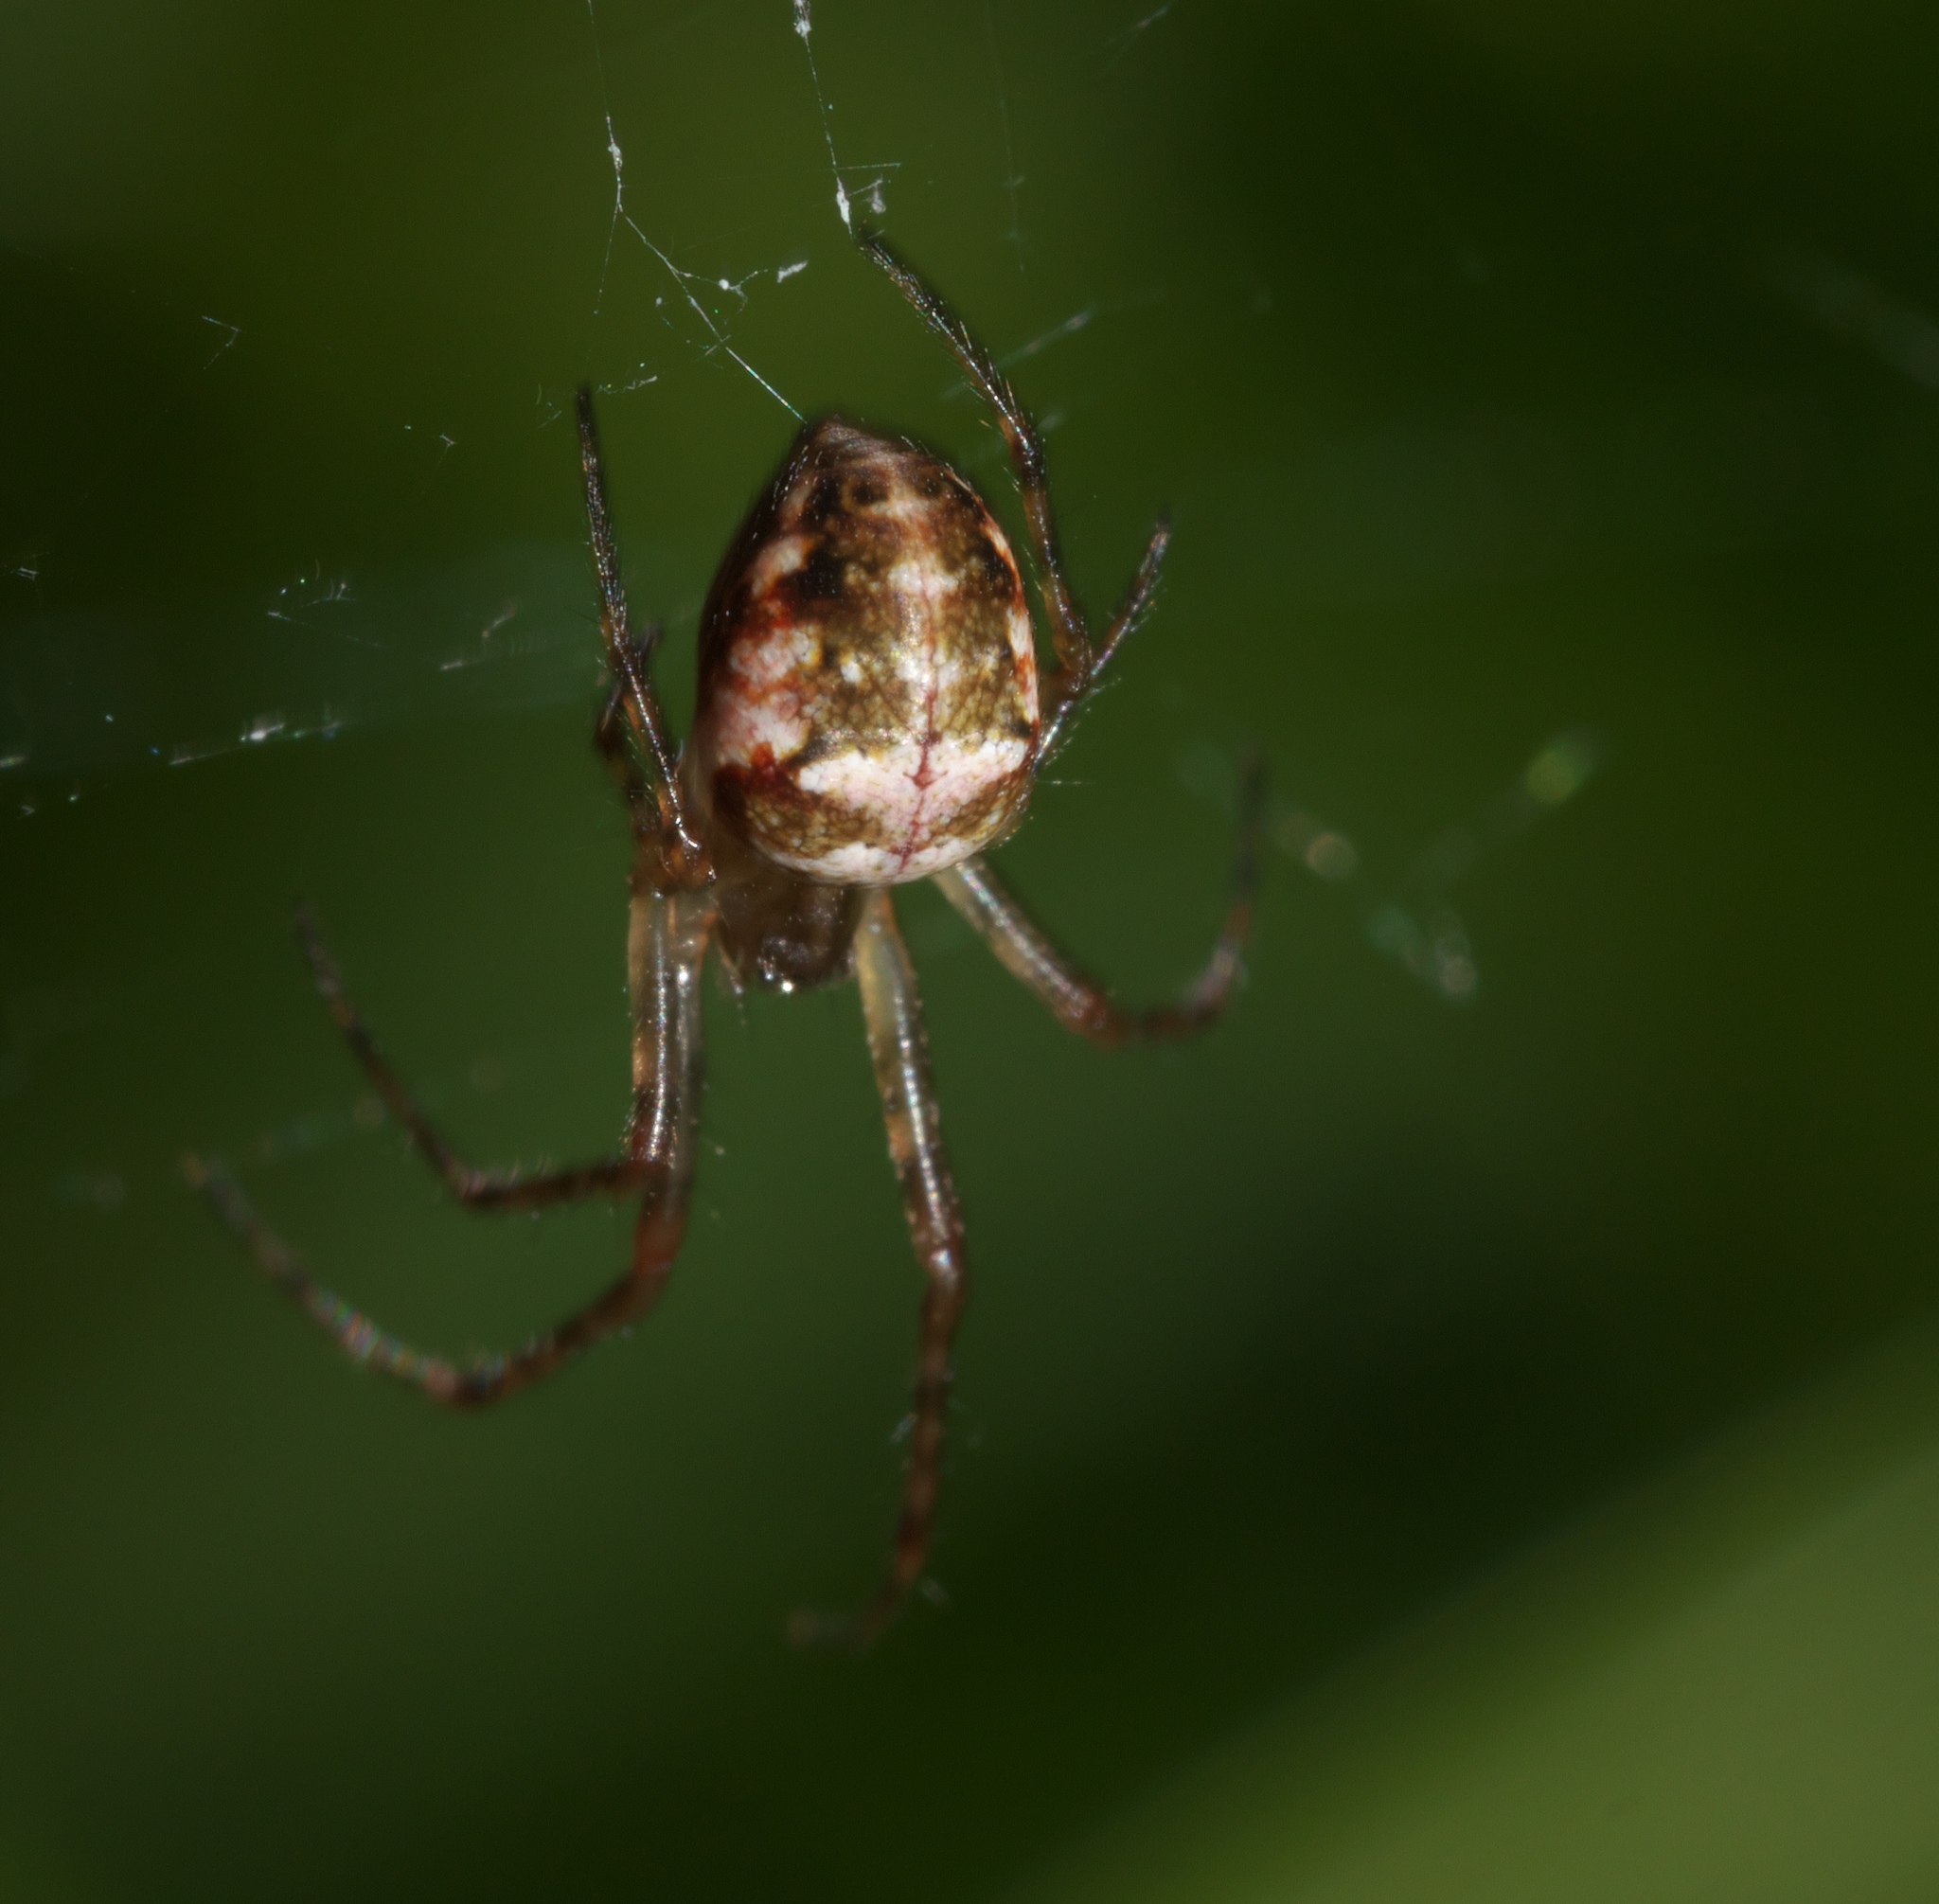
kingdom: Animalia
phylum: Arthropoda
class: Arachnida
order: Araneae
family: Tetragnathidae
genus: Metellina
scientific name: Metellina curtisi
